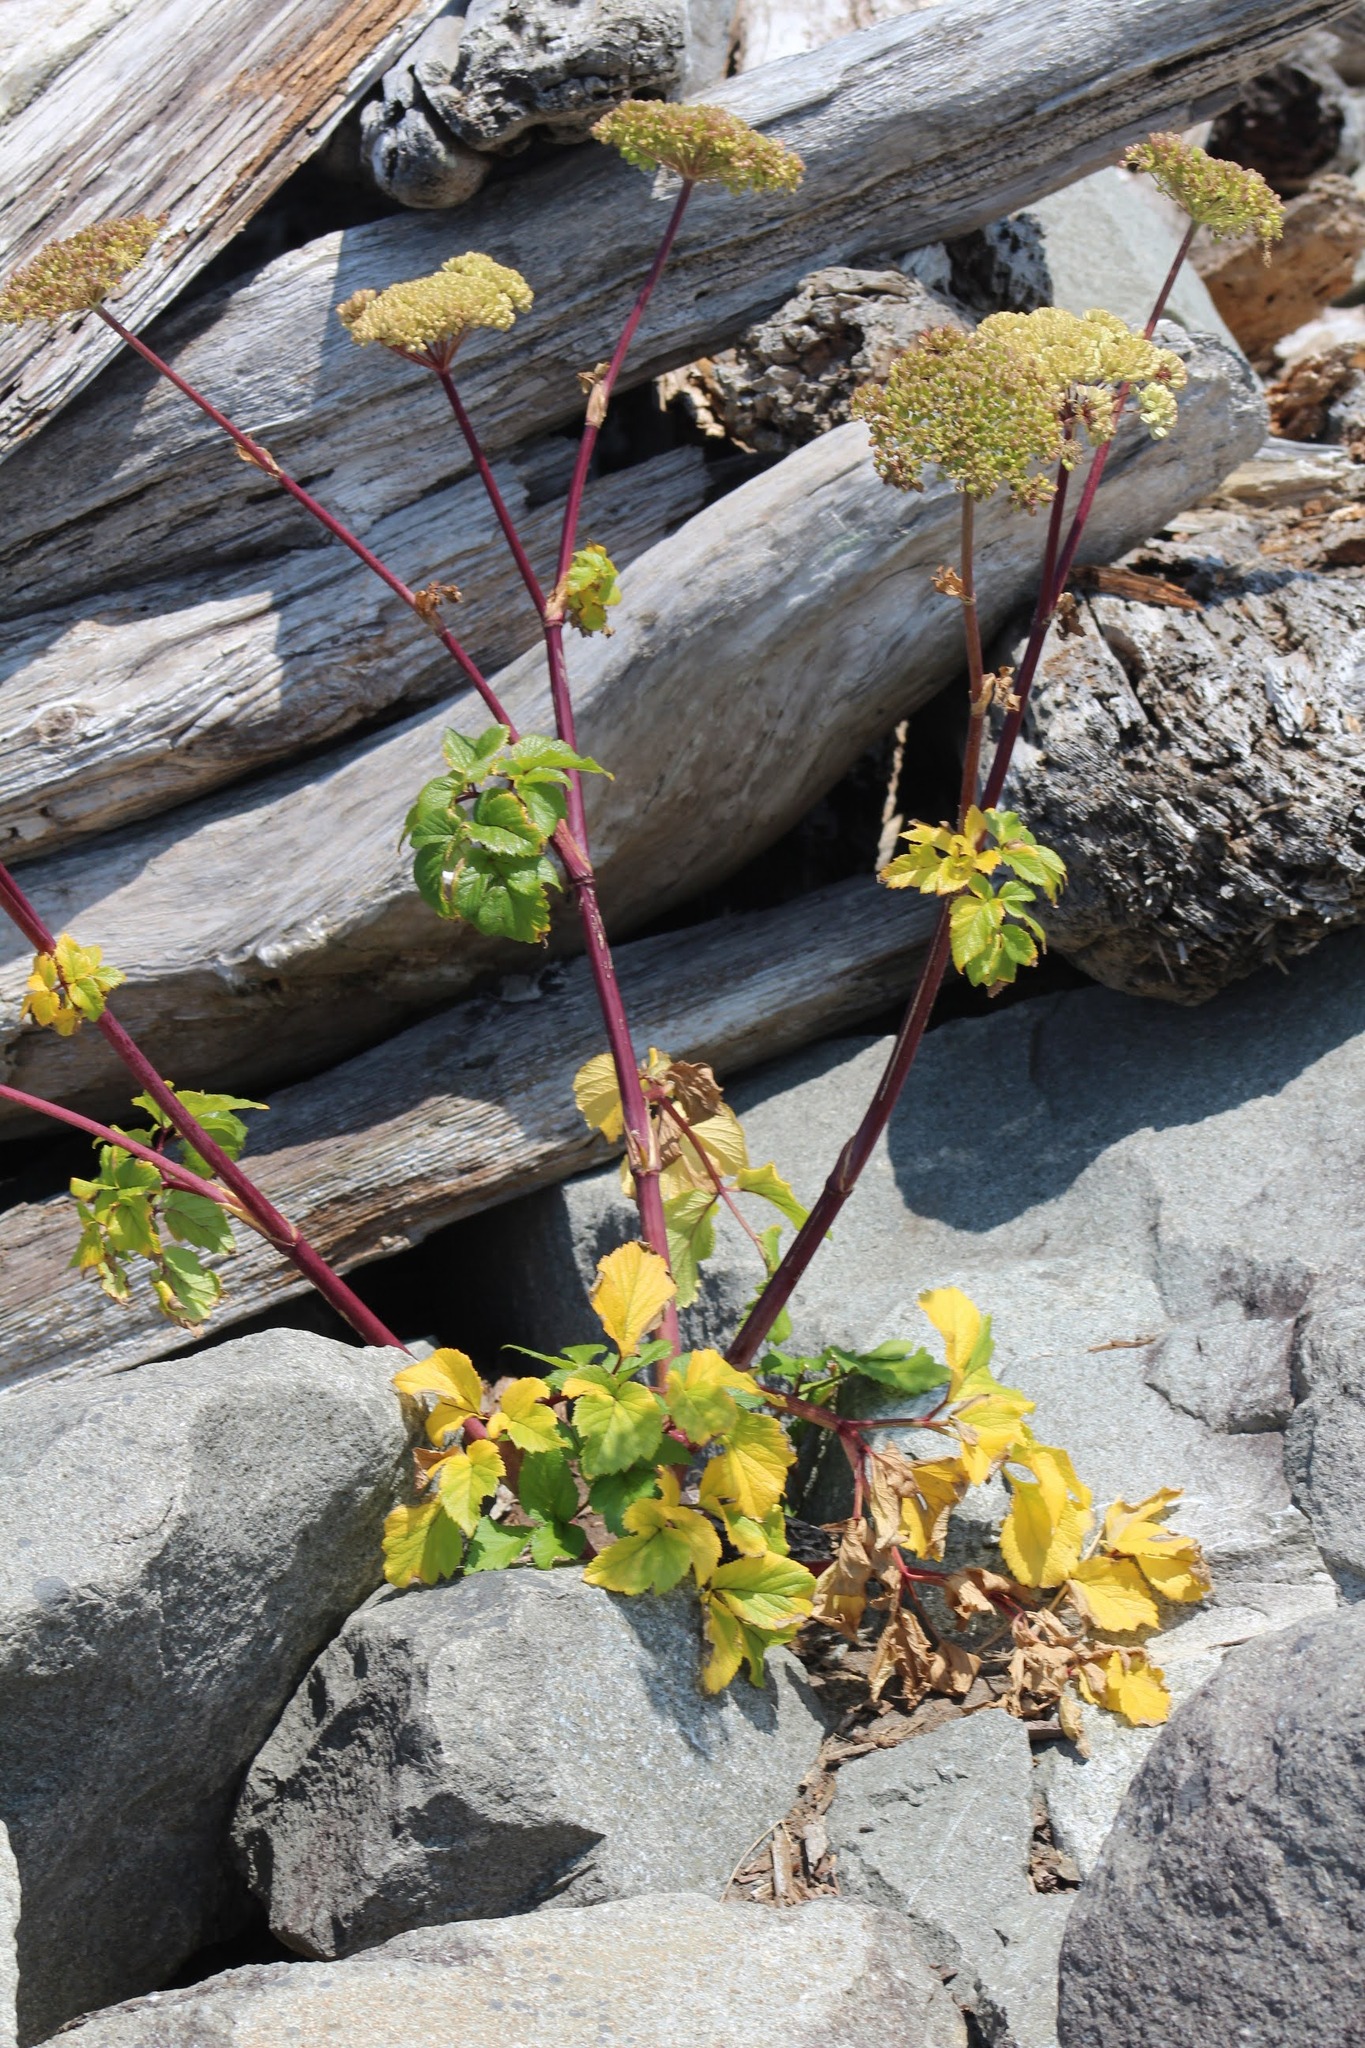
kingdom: Plantae
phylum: Tracheophyta
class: Magnoliopsida
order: Apiales
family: Apiaceae
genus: Angelica
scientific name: Angelica lucida
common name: Seabeach angelica
